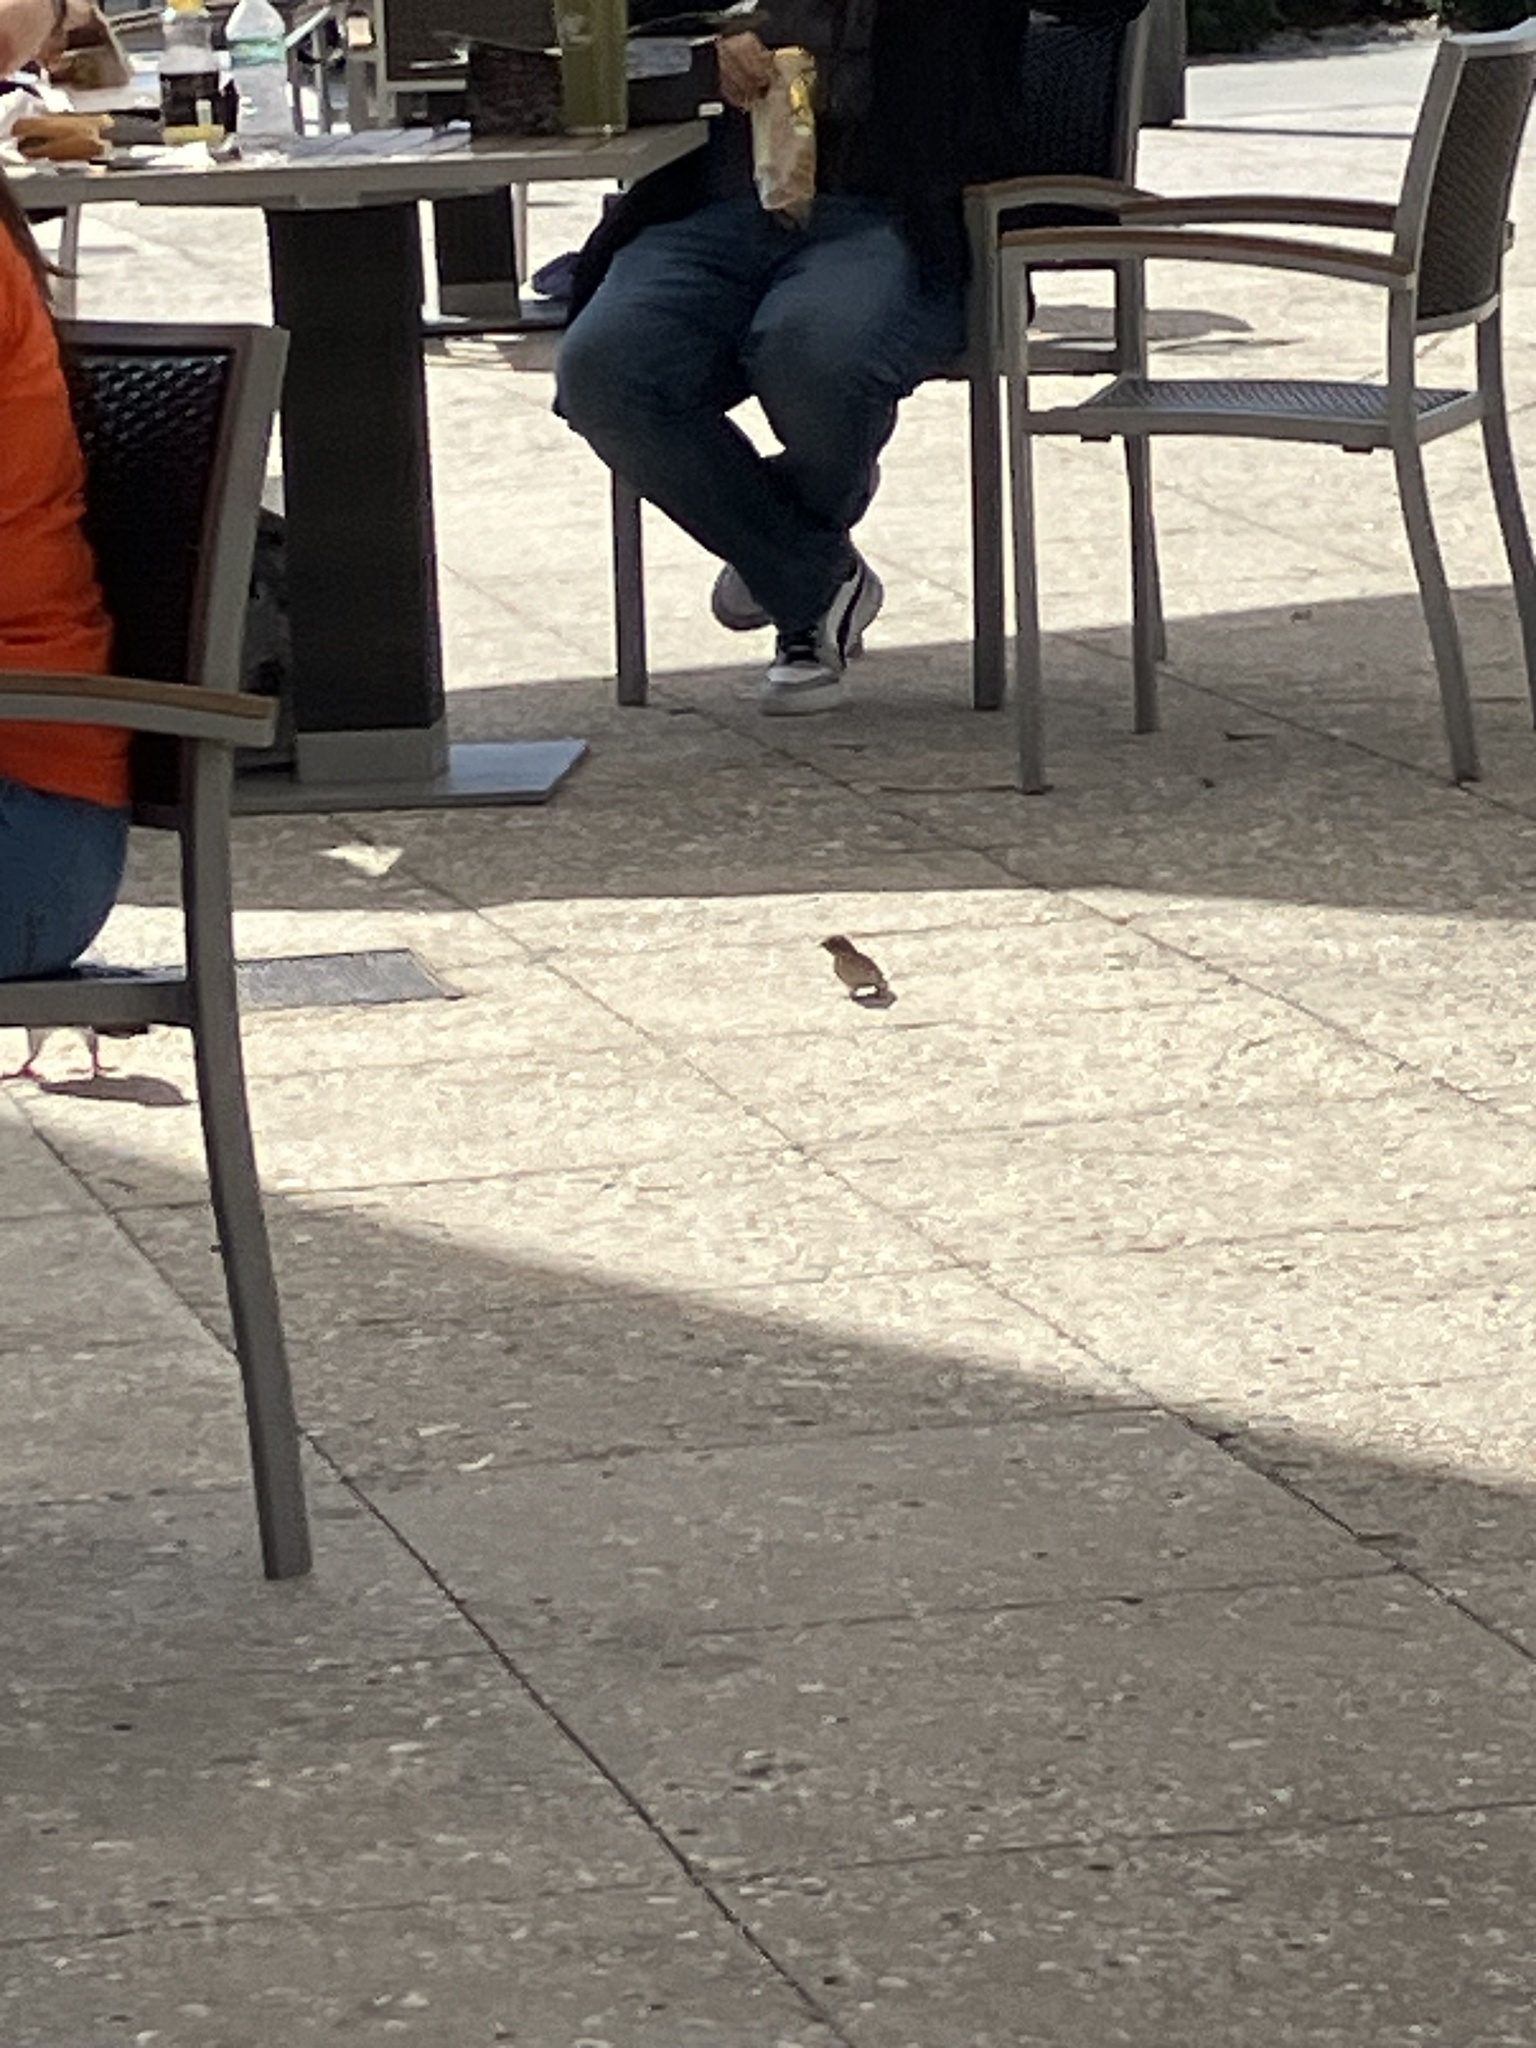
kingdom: Animalia
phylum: Chordata
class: Aves
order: Passeriformes
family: Passeridae
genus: Passer
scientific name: Passer domesticus
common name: House sparrow
